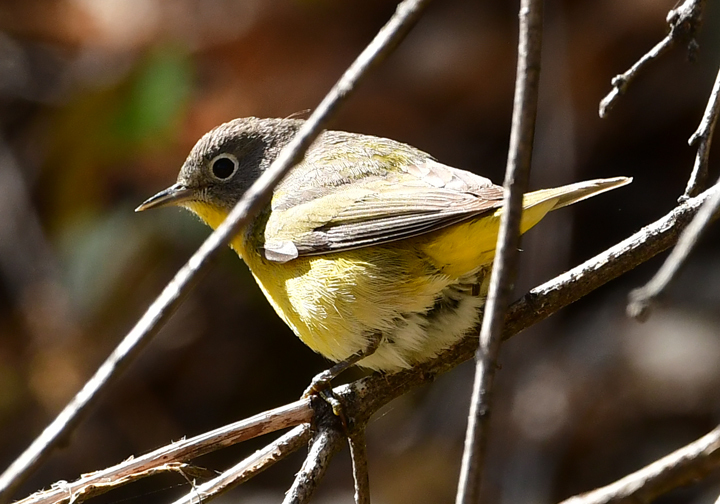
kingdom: Animalia
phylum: Chordata
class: Aves
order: Passeriformes
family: Parulidae
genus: Leiothlypis
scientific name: Leiothlypis ruficapilla
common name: Nashville warbler
